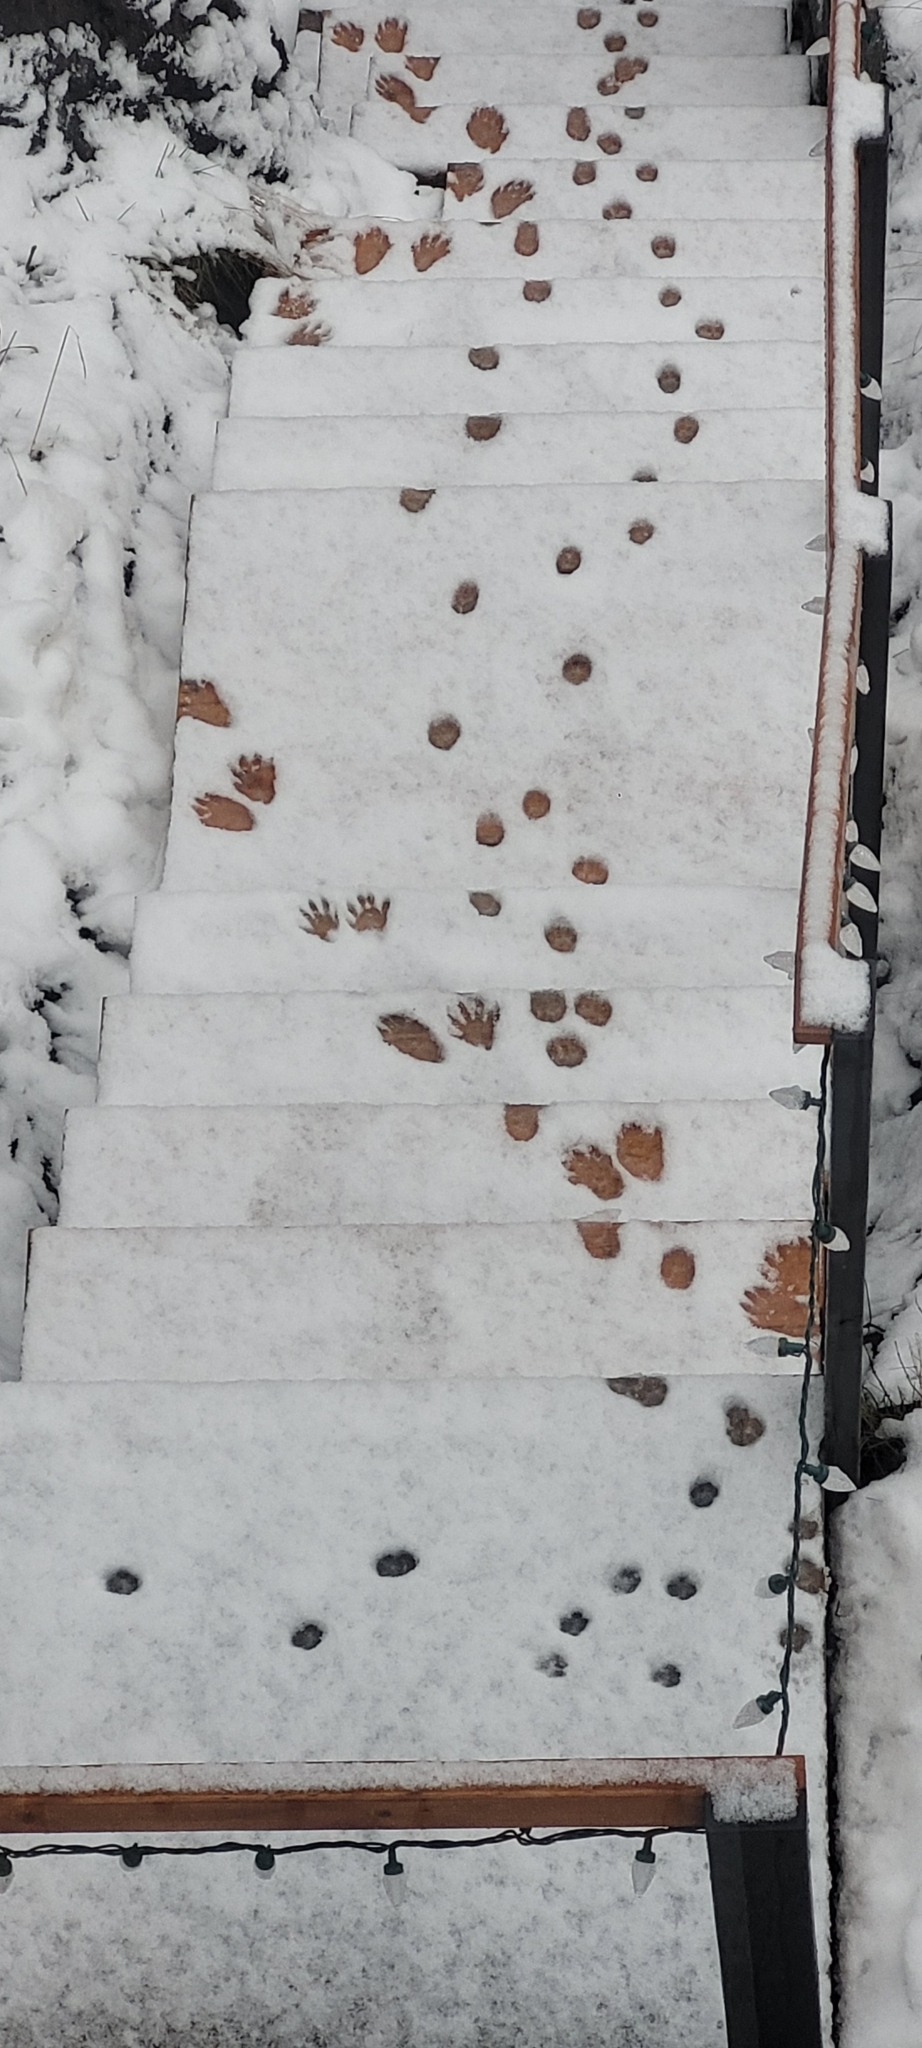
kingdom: Animalia
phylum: Chordata
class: Mammalia
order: Carnivora
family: Procyonidae
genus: Procyon
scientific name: Procyon lotor
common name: Raccoon
